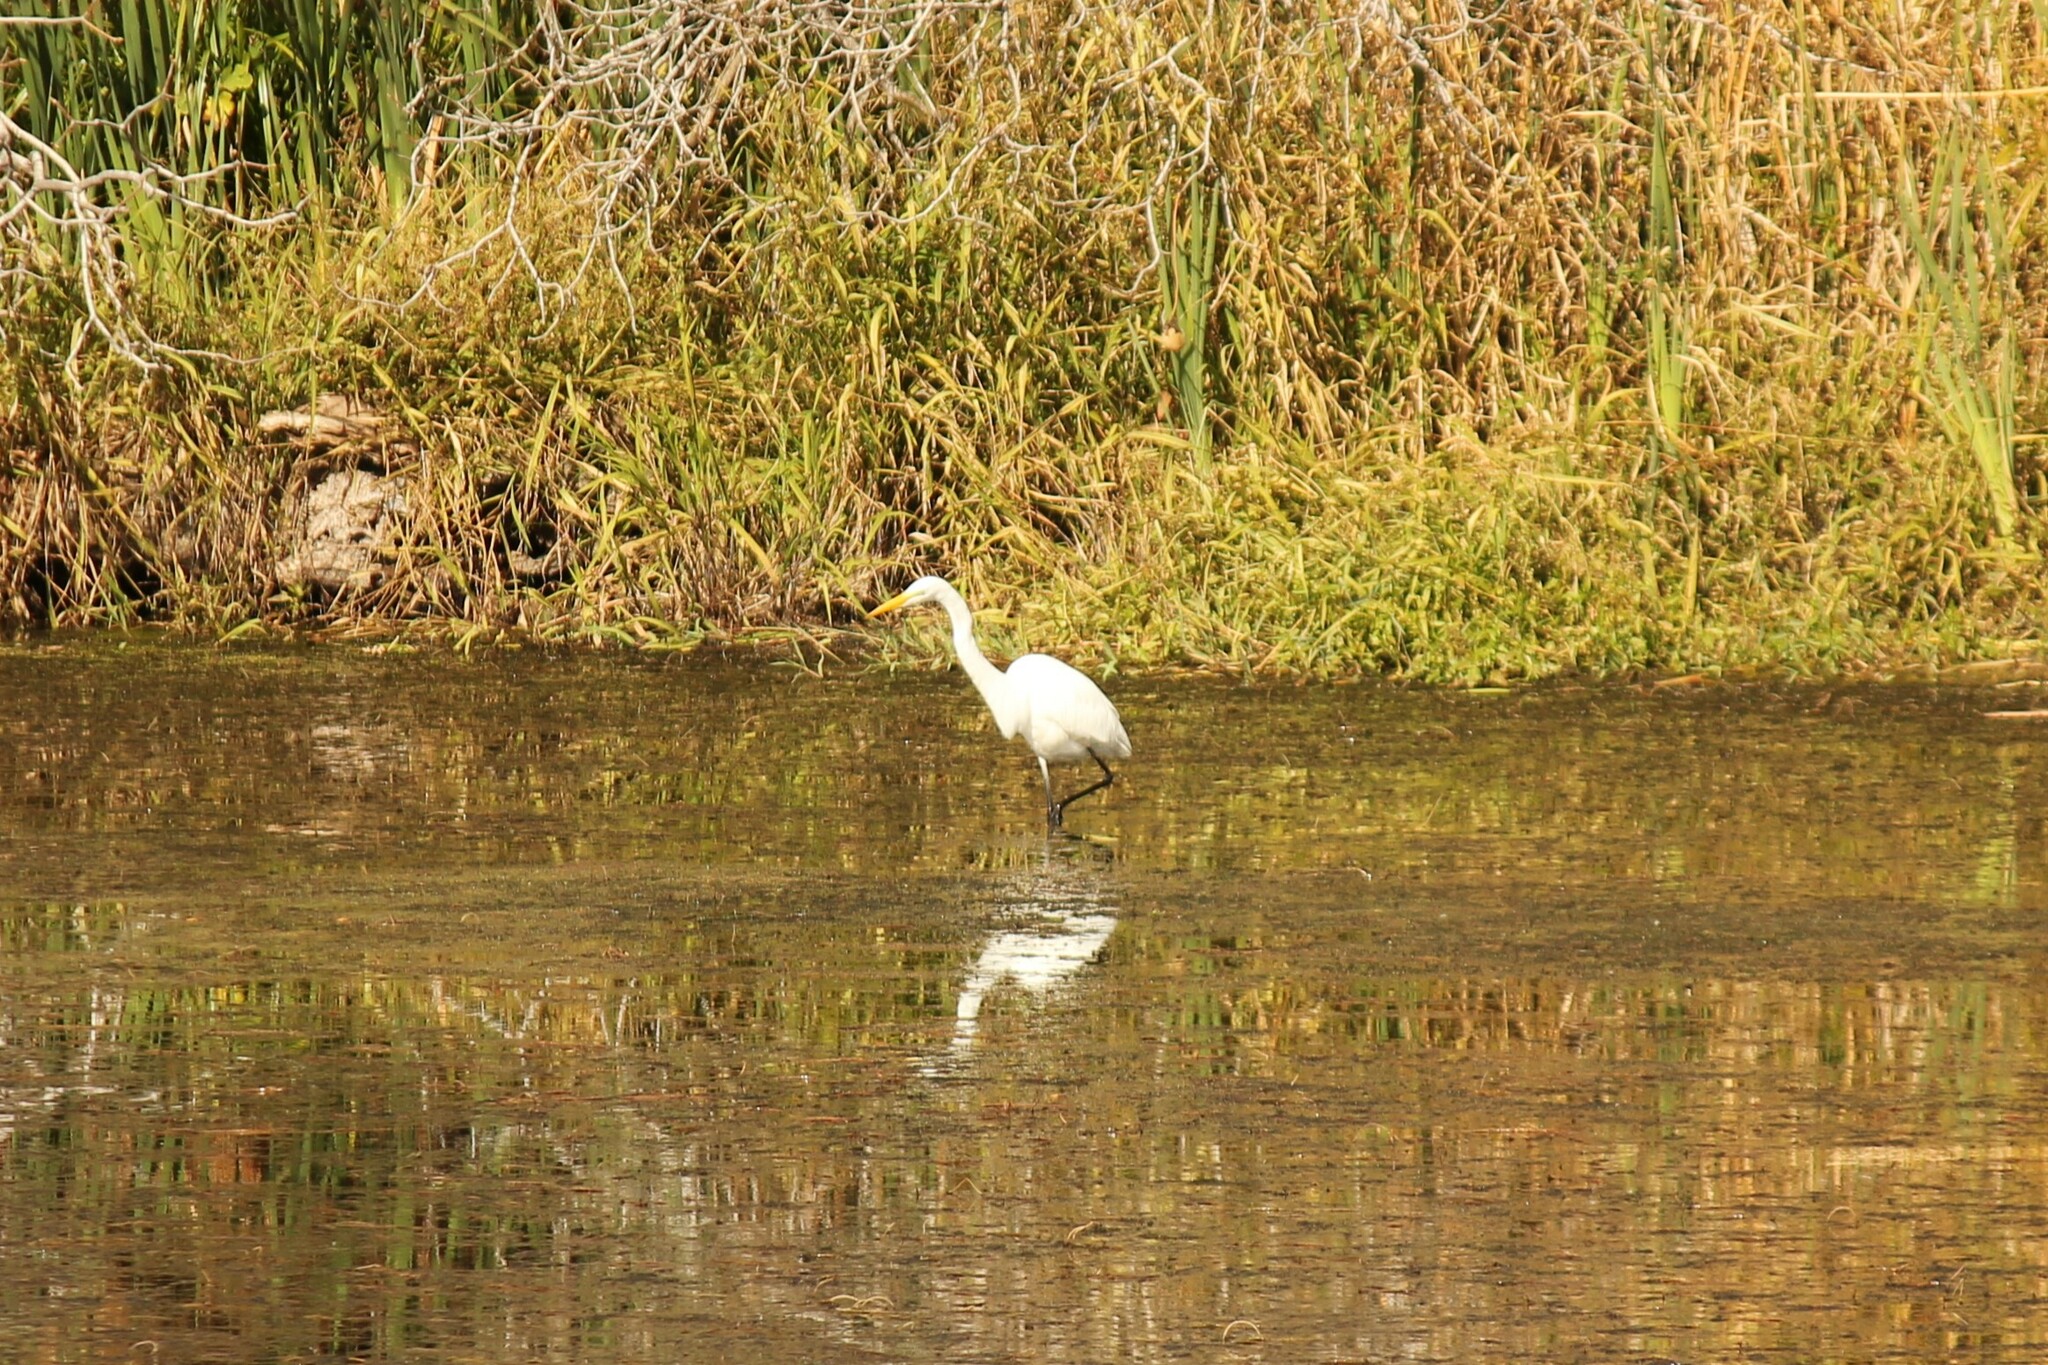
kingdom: Animalia
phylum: Chordata
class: Aves
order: Pelecaniformes
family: Ardeidae
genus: Ardea
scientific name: Ardea alba
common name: Great egret
